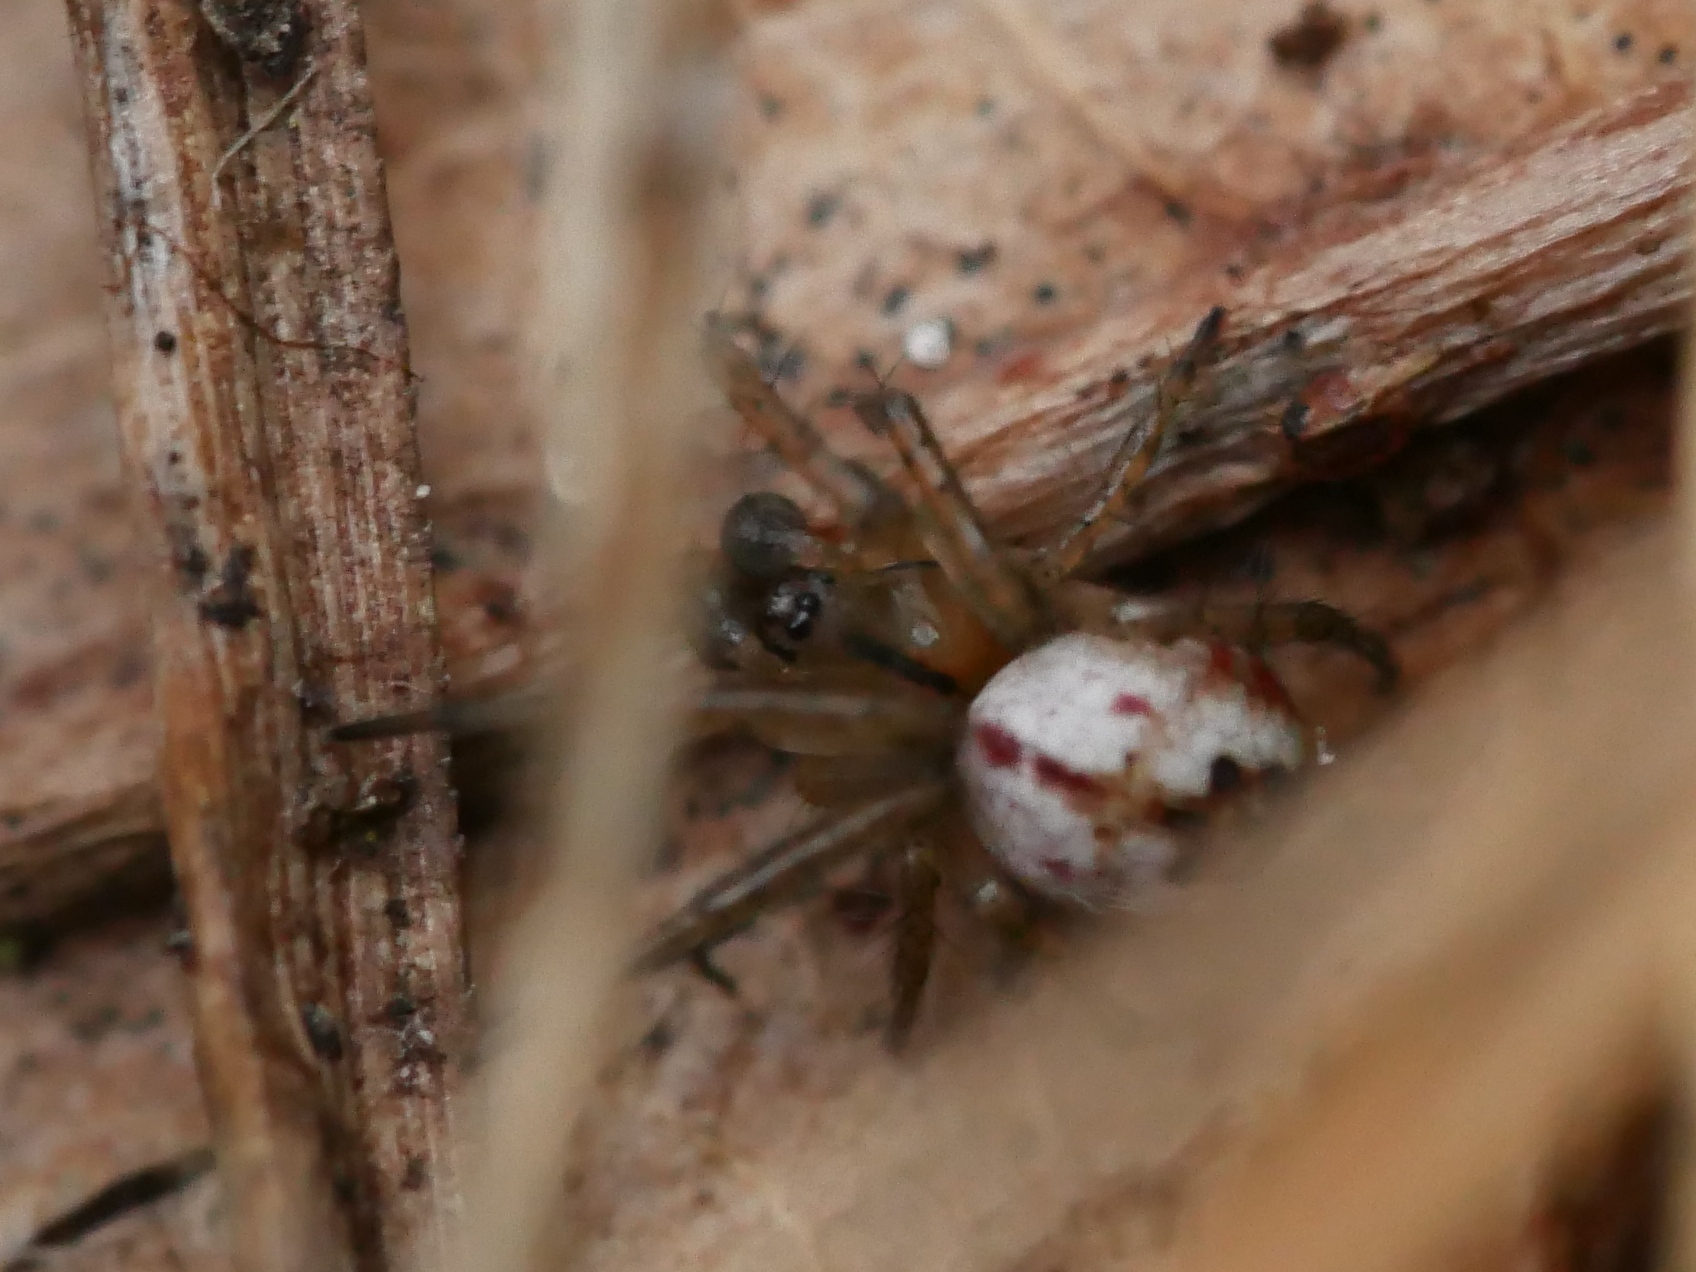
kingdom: Animalia
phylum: Arthropoda
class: Arachnida
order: Araneae
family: Araneidae
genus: Mangora
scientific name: Mangora acalypha
